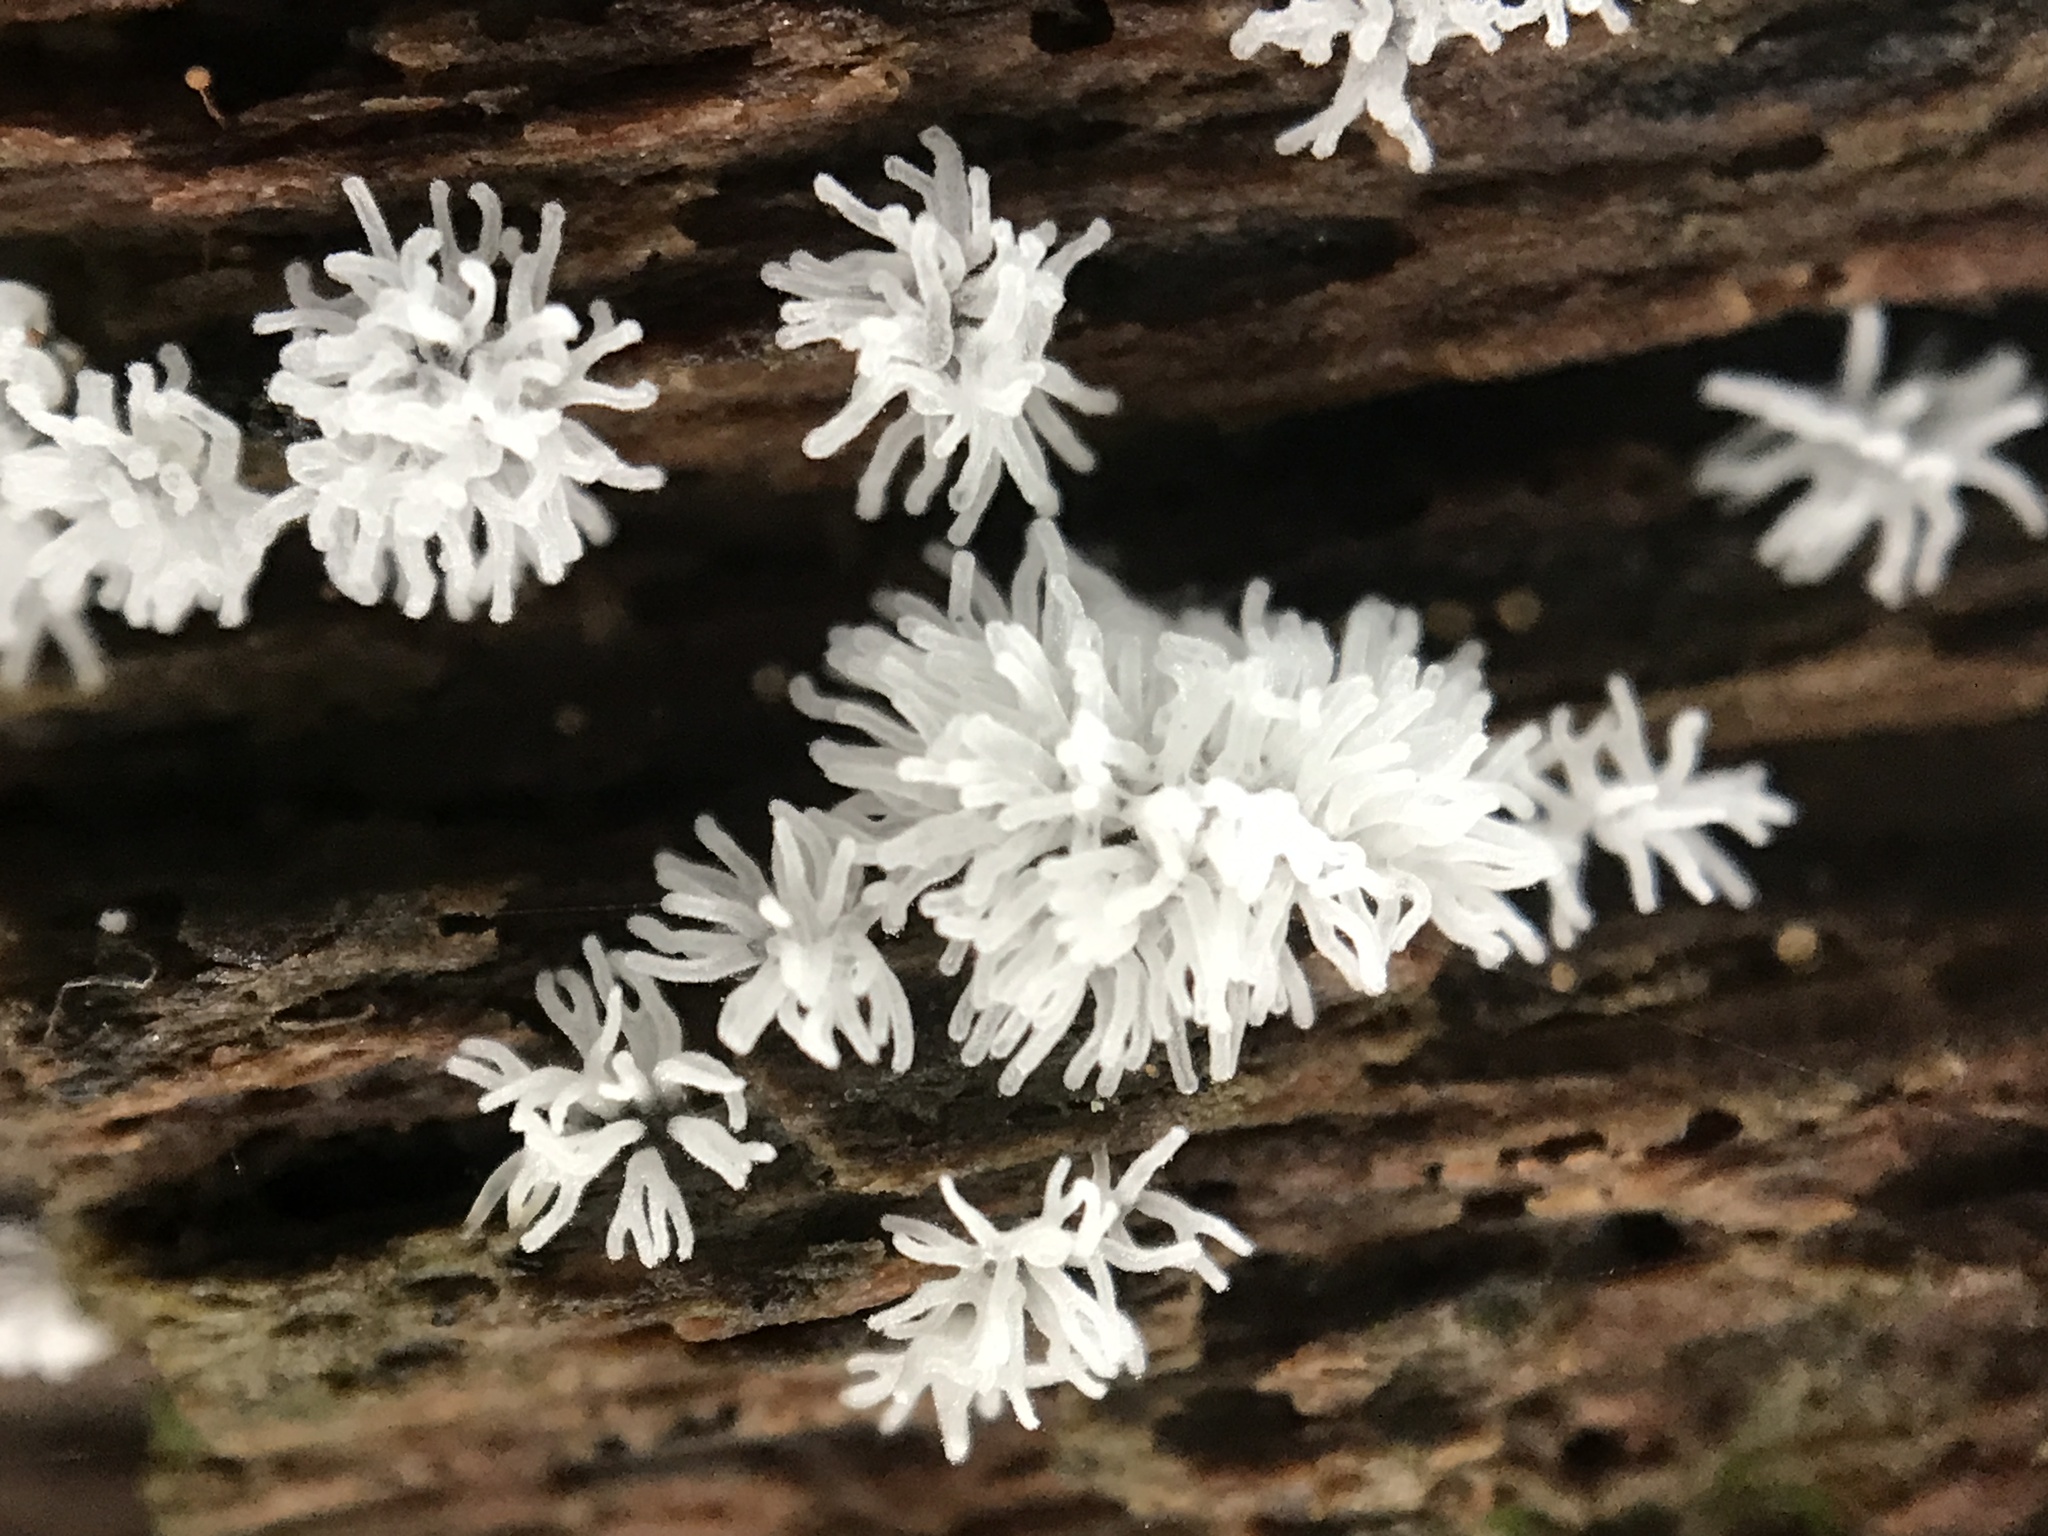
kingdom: Protozoa
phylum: Mycetozoa
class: Protosteliomycetes
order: Ceratiomyxales
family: Ceratiomyxaceae
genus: Ceratiomyxa
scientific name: Ceratiomyxa fruticulosa
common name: Honeycomb coral slime mold
